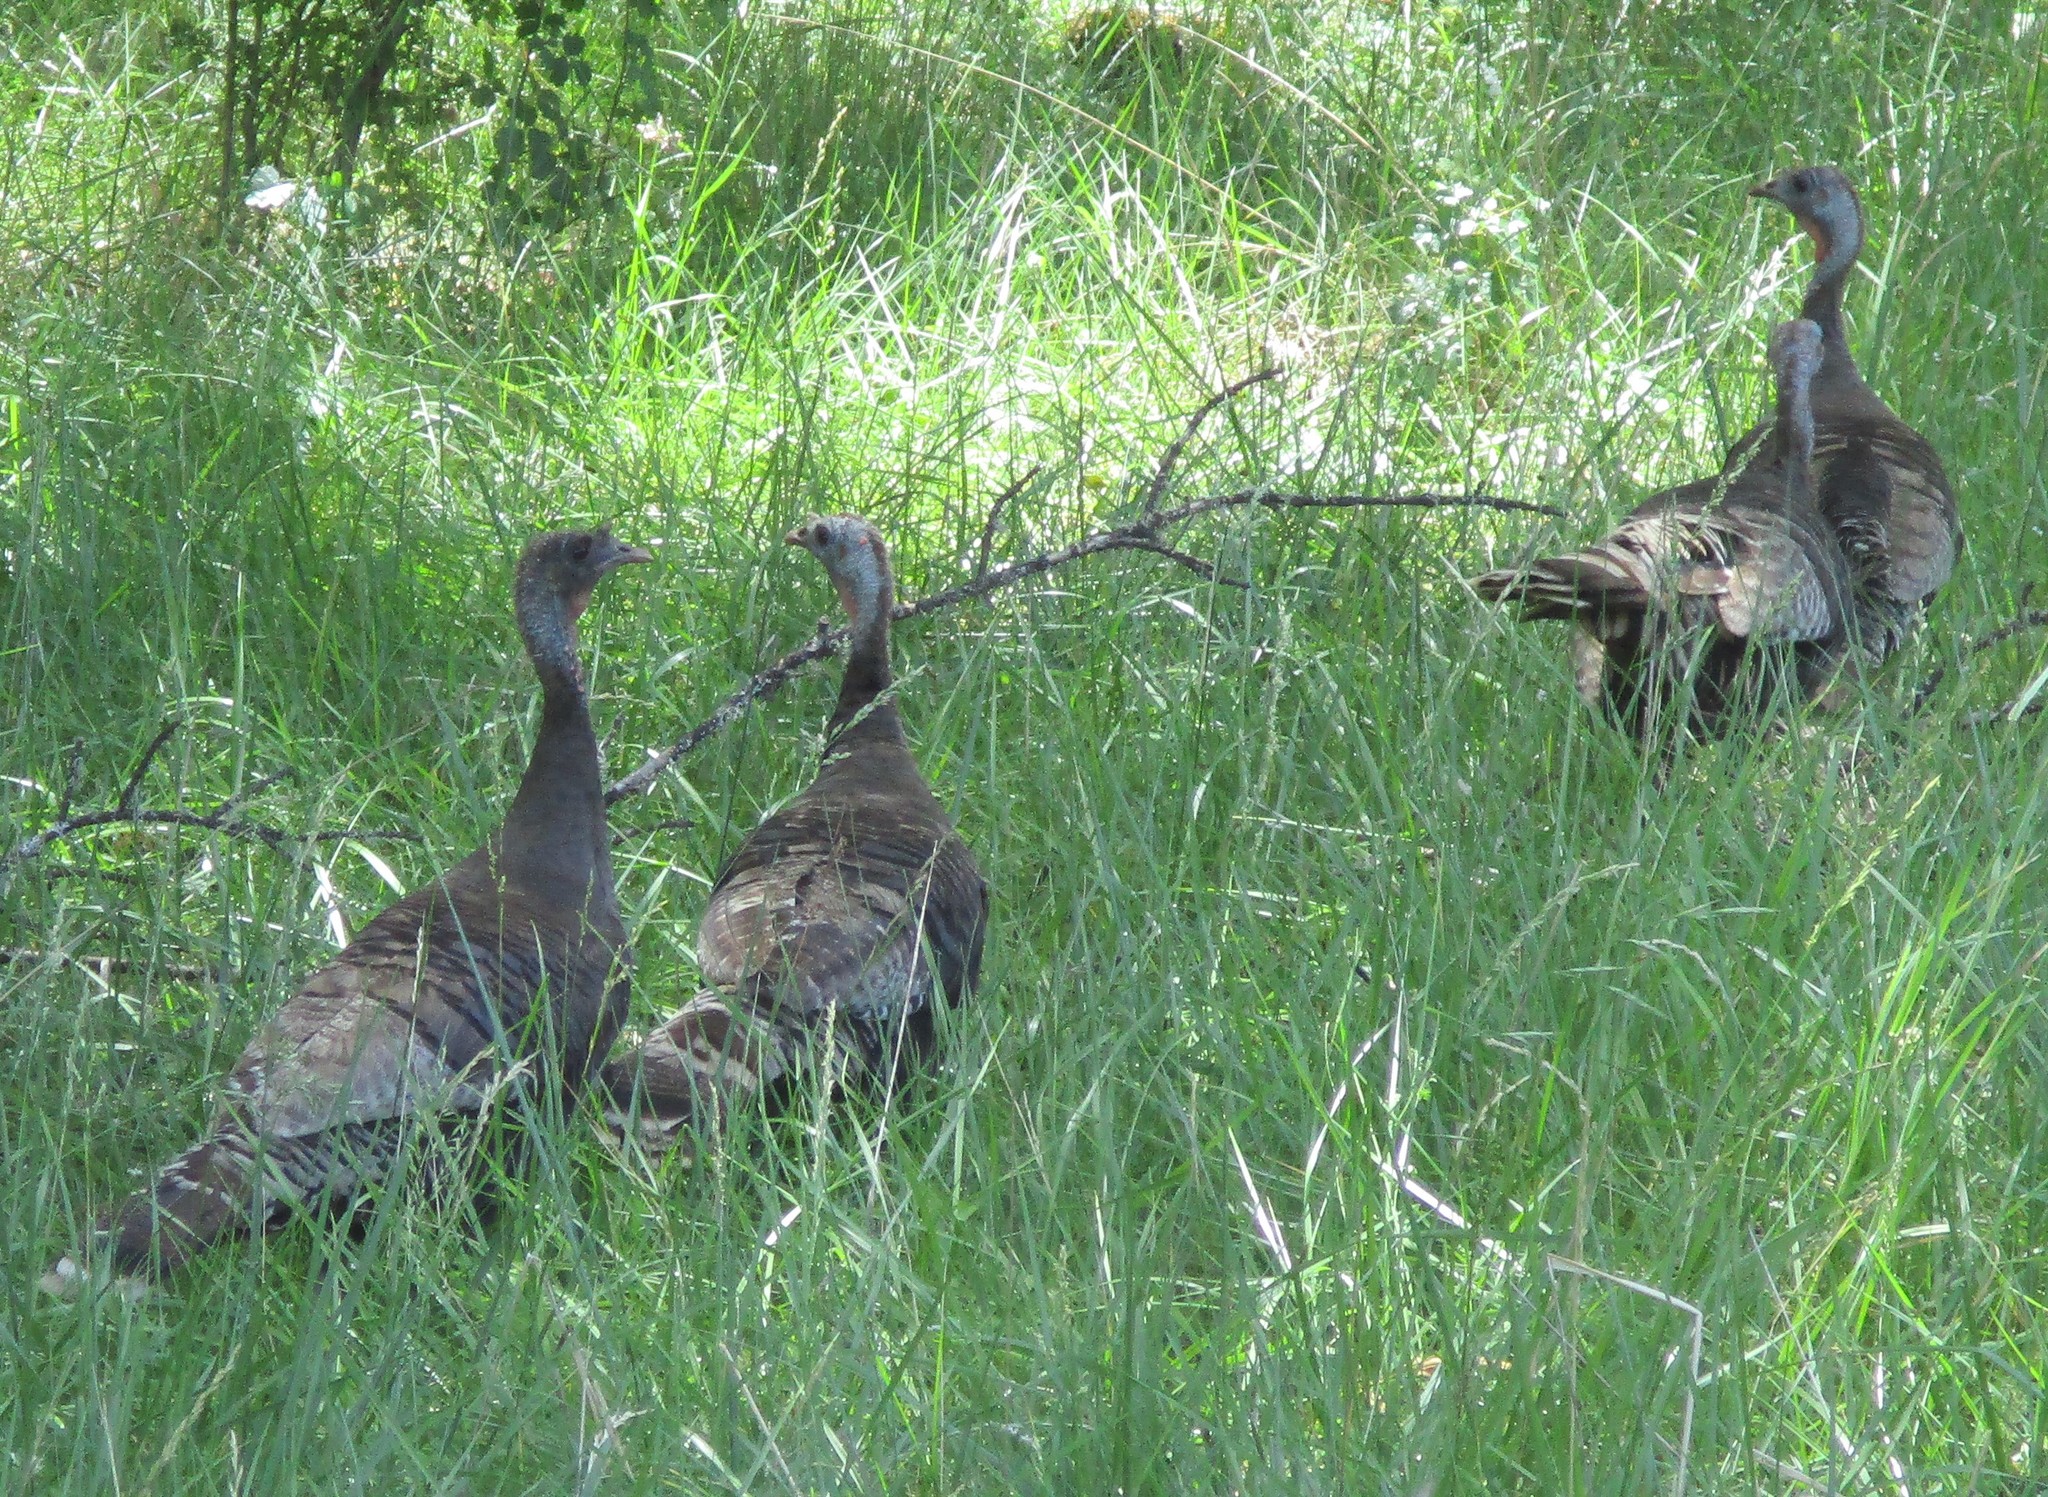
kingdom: Animalia
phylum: Chordata
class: Aves
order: Galliformes
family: Phasianidae
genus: Meleagris
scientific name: Meleagris gallopavo
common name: Wild turkey
